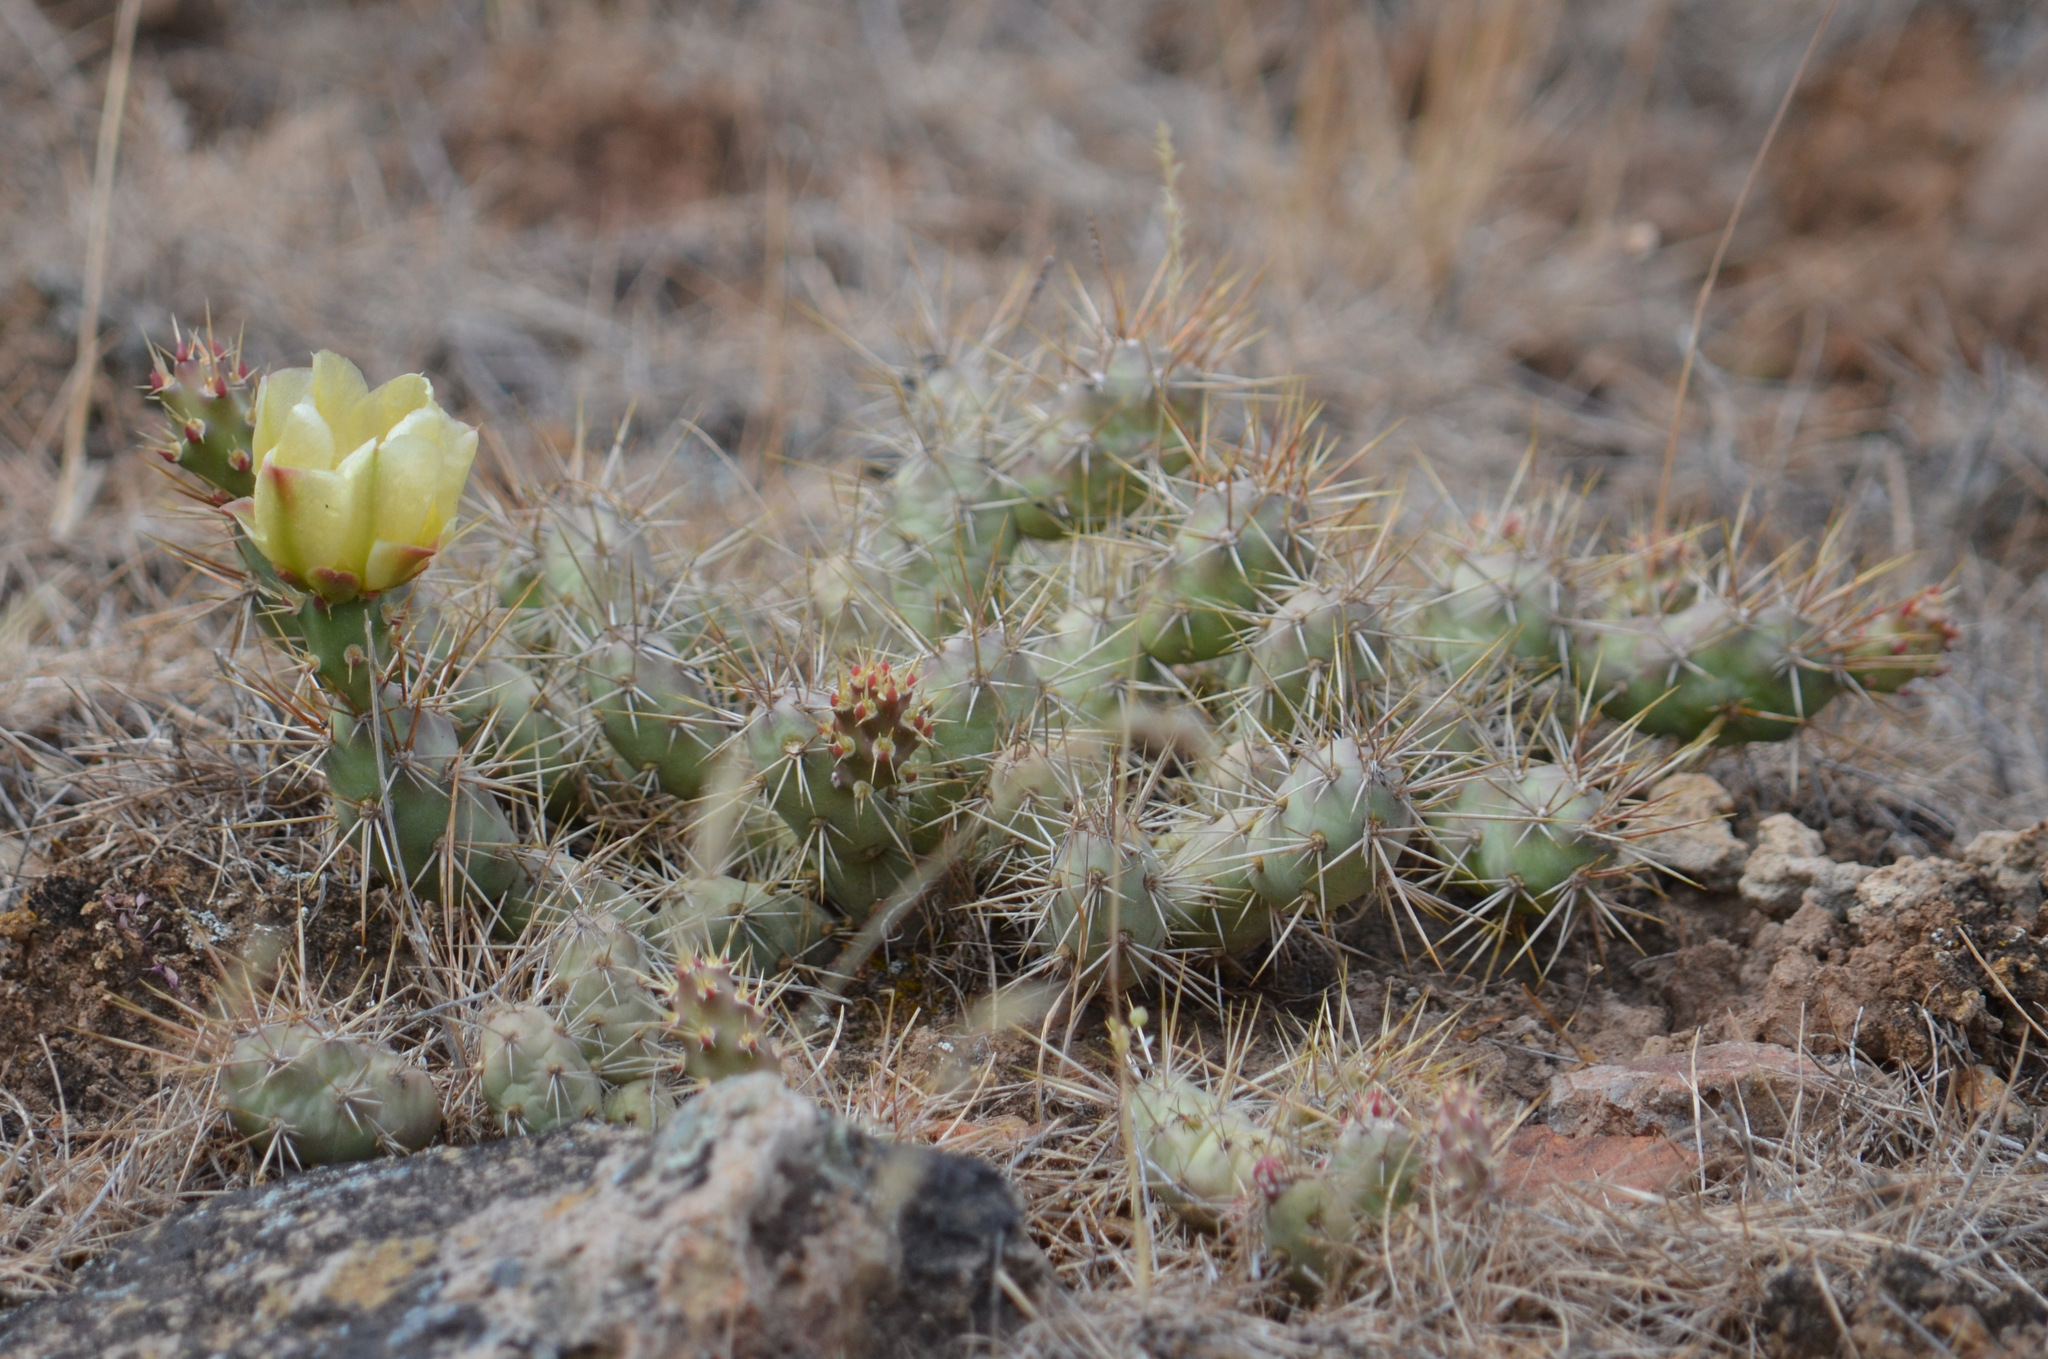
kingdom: Plantae
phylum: Tracheophyta
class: Magnoliopsida
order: Caryophyllales
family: Cactaceae
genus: Opuntia
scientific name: Opuntia fragilis
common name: Brittle cactus
